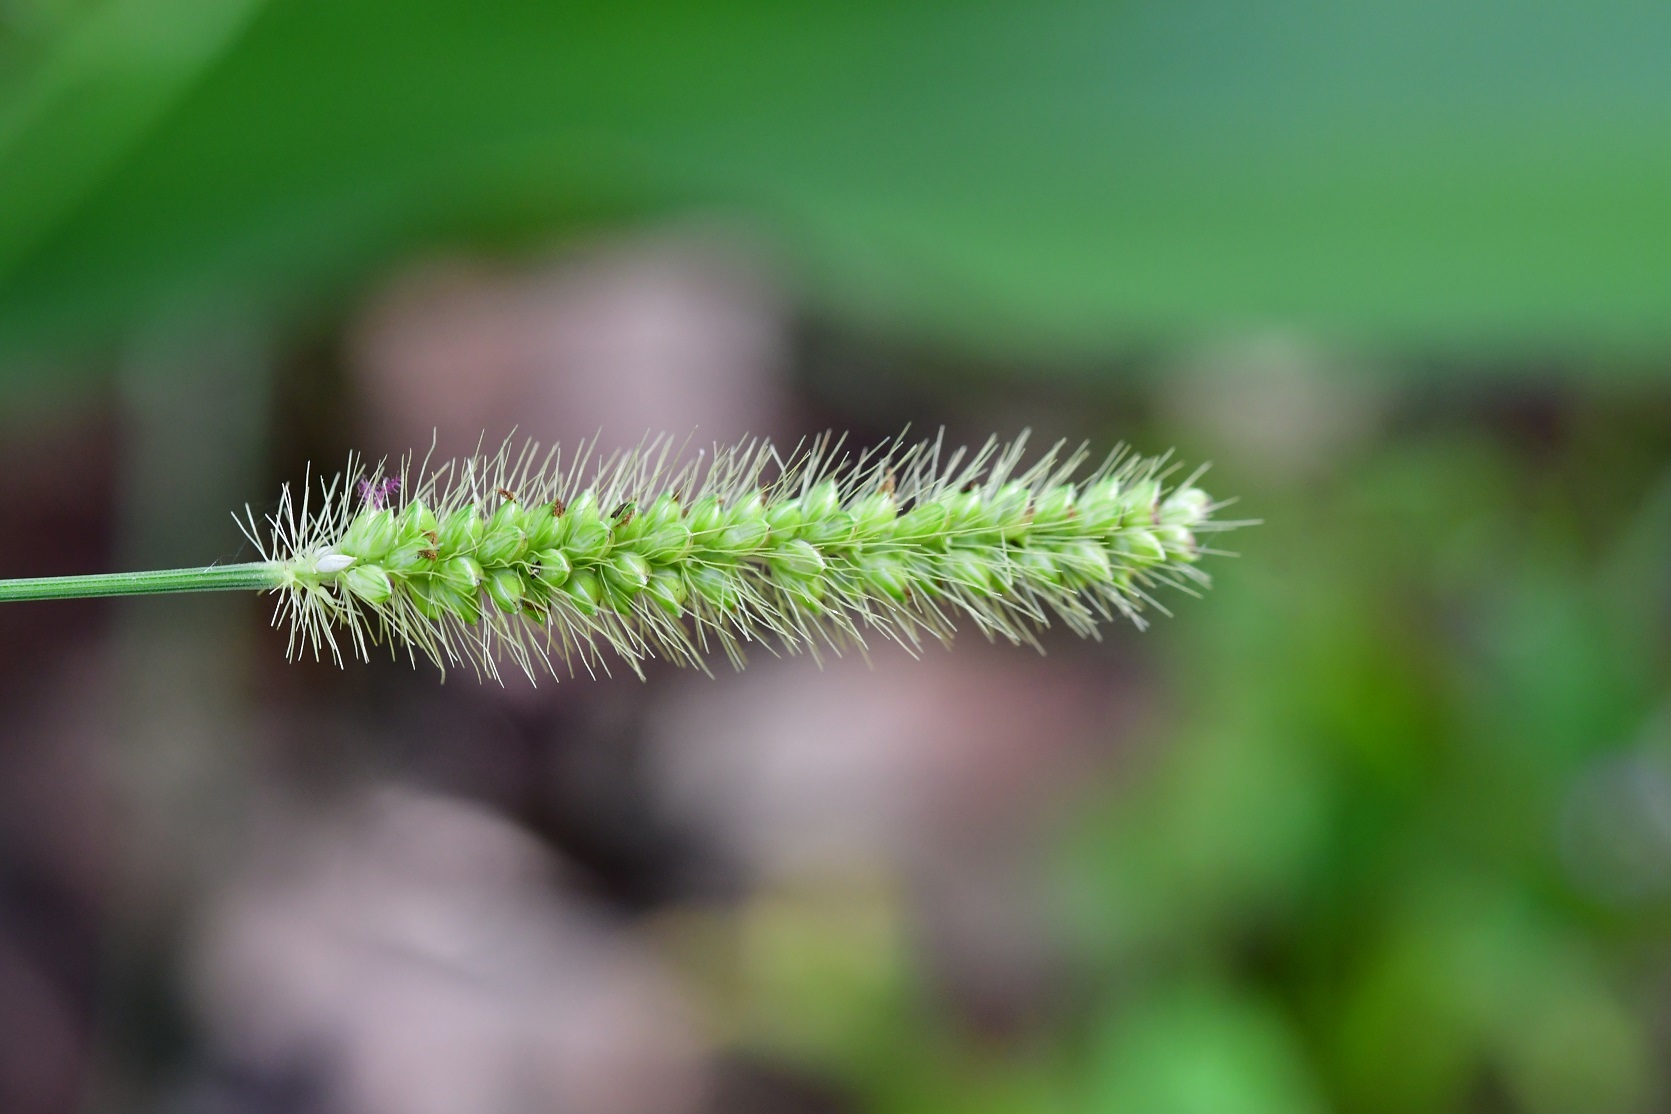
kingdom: Plantae
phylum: Tracheophyta
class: Liliopsida
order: Poales
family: Poaceae
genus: Setaria
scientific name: Setaria parviflora
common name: Knotroot bristle-grass
